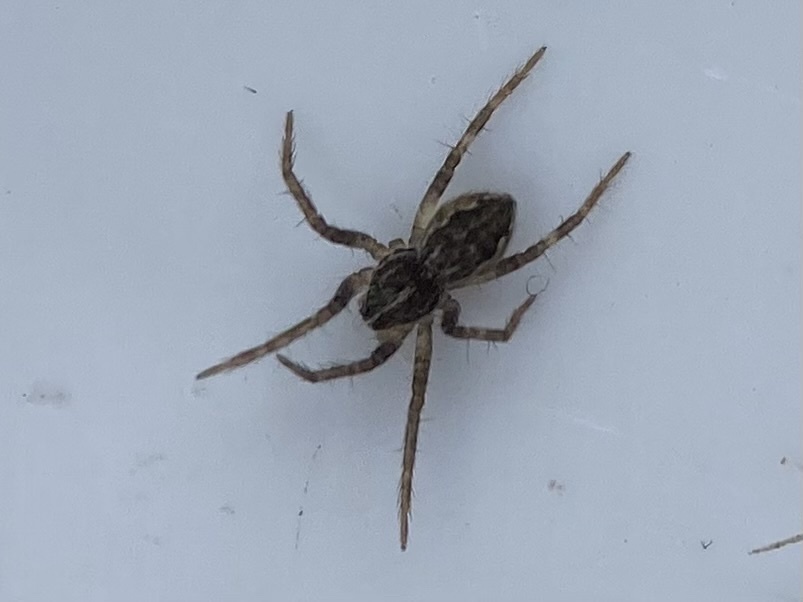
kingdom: Animalia
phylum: Arthropoda
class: Arachnida
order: Araneae
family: Pisauridae
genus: Pisaura
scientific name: Pisaura mirabilis
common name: Tent spider
